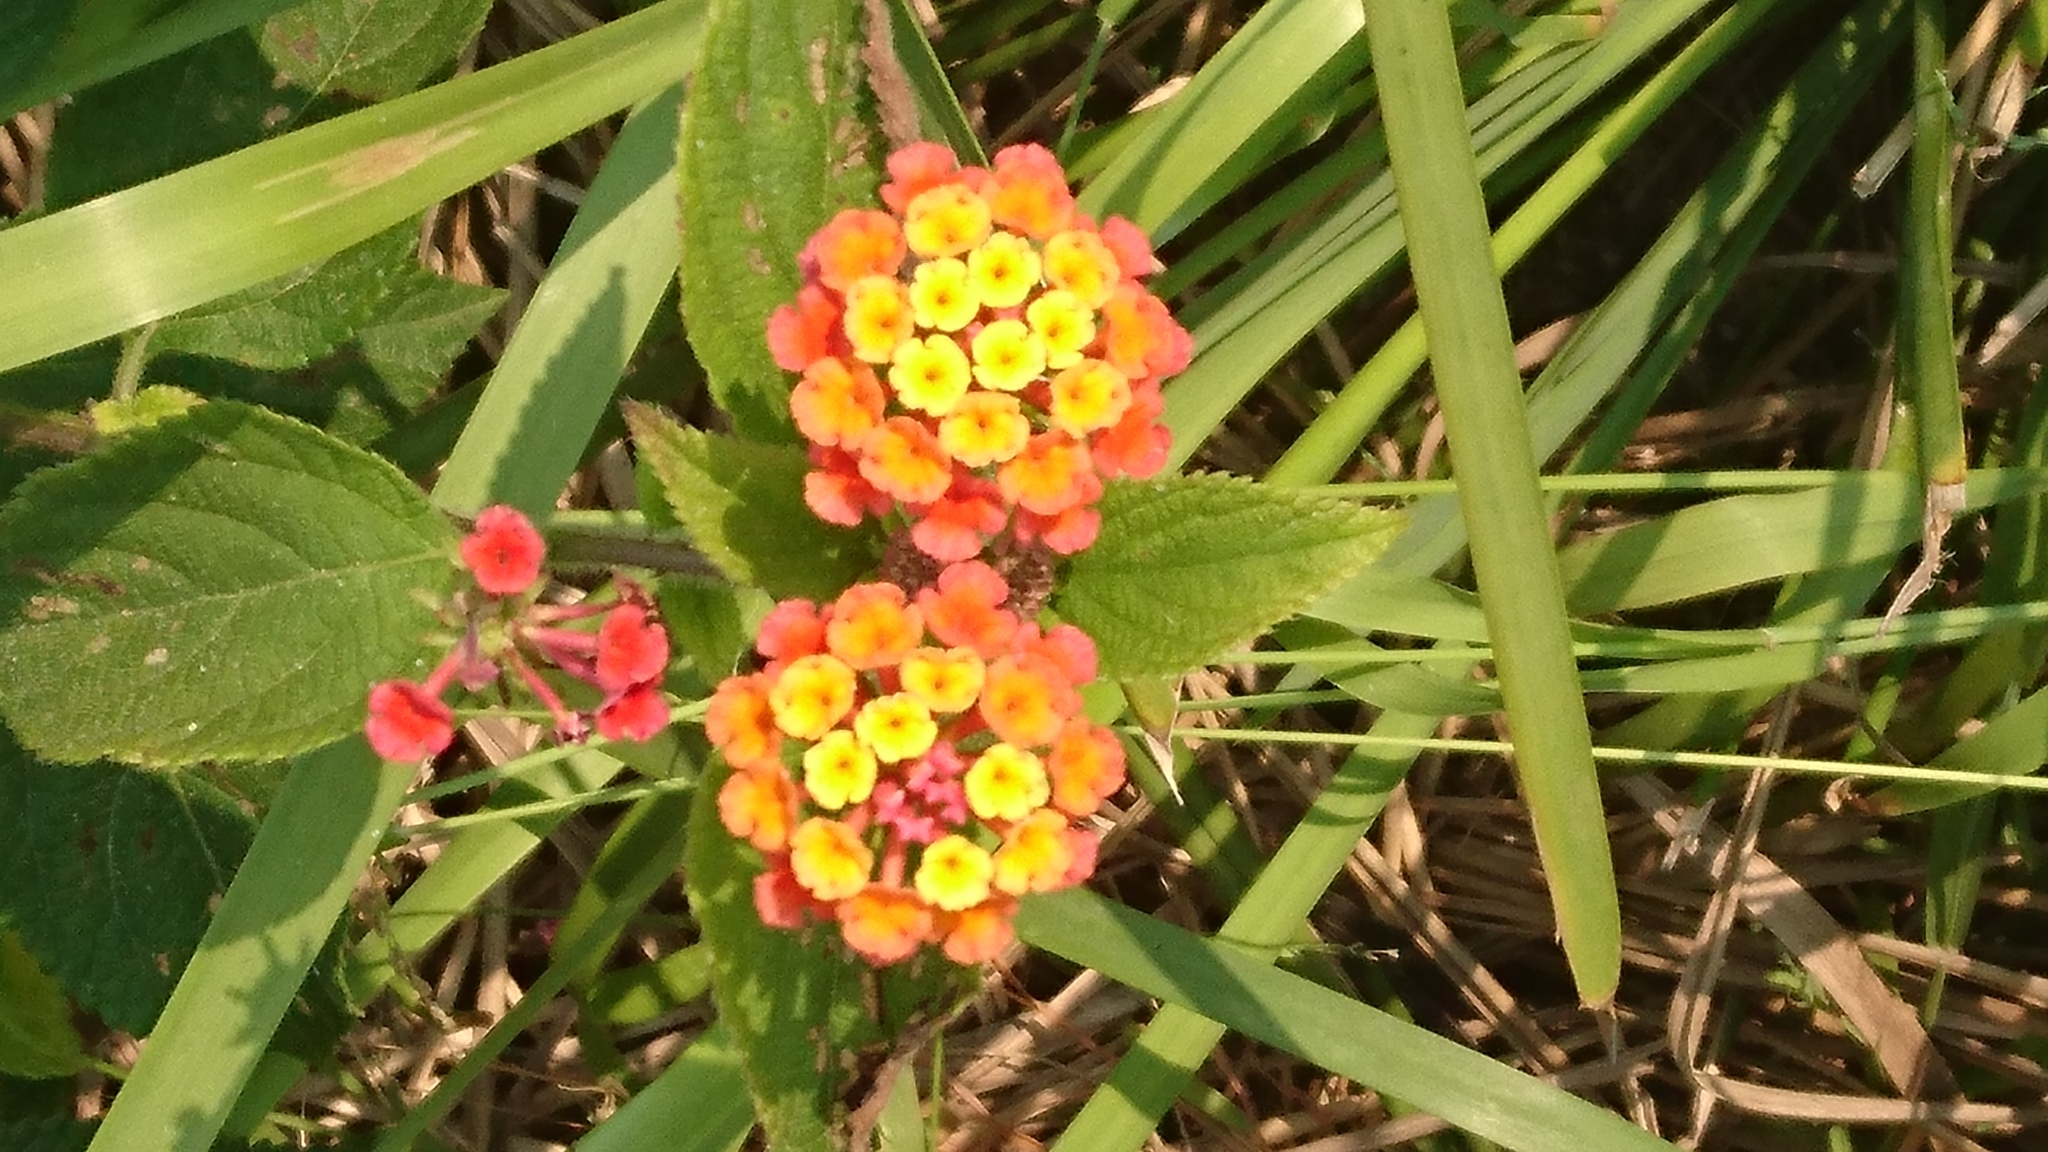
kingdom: Plantae
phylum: Tracheophyta
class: Magnoliopsida
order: Lamiales
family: Verbenaceae
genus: Lantana
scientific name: Lantana camara
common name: Lantana
